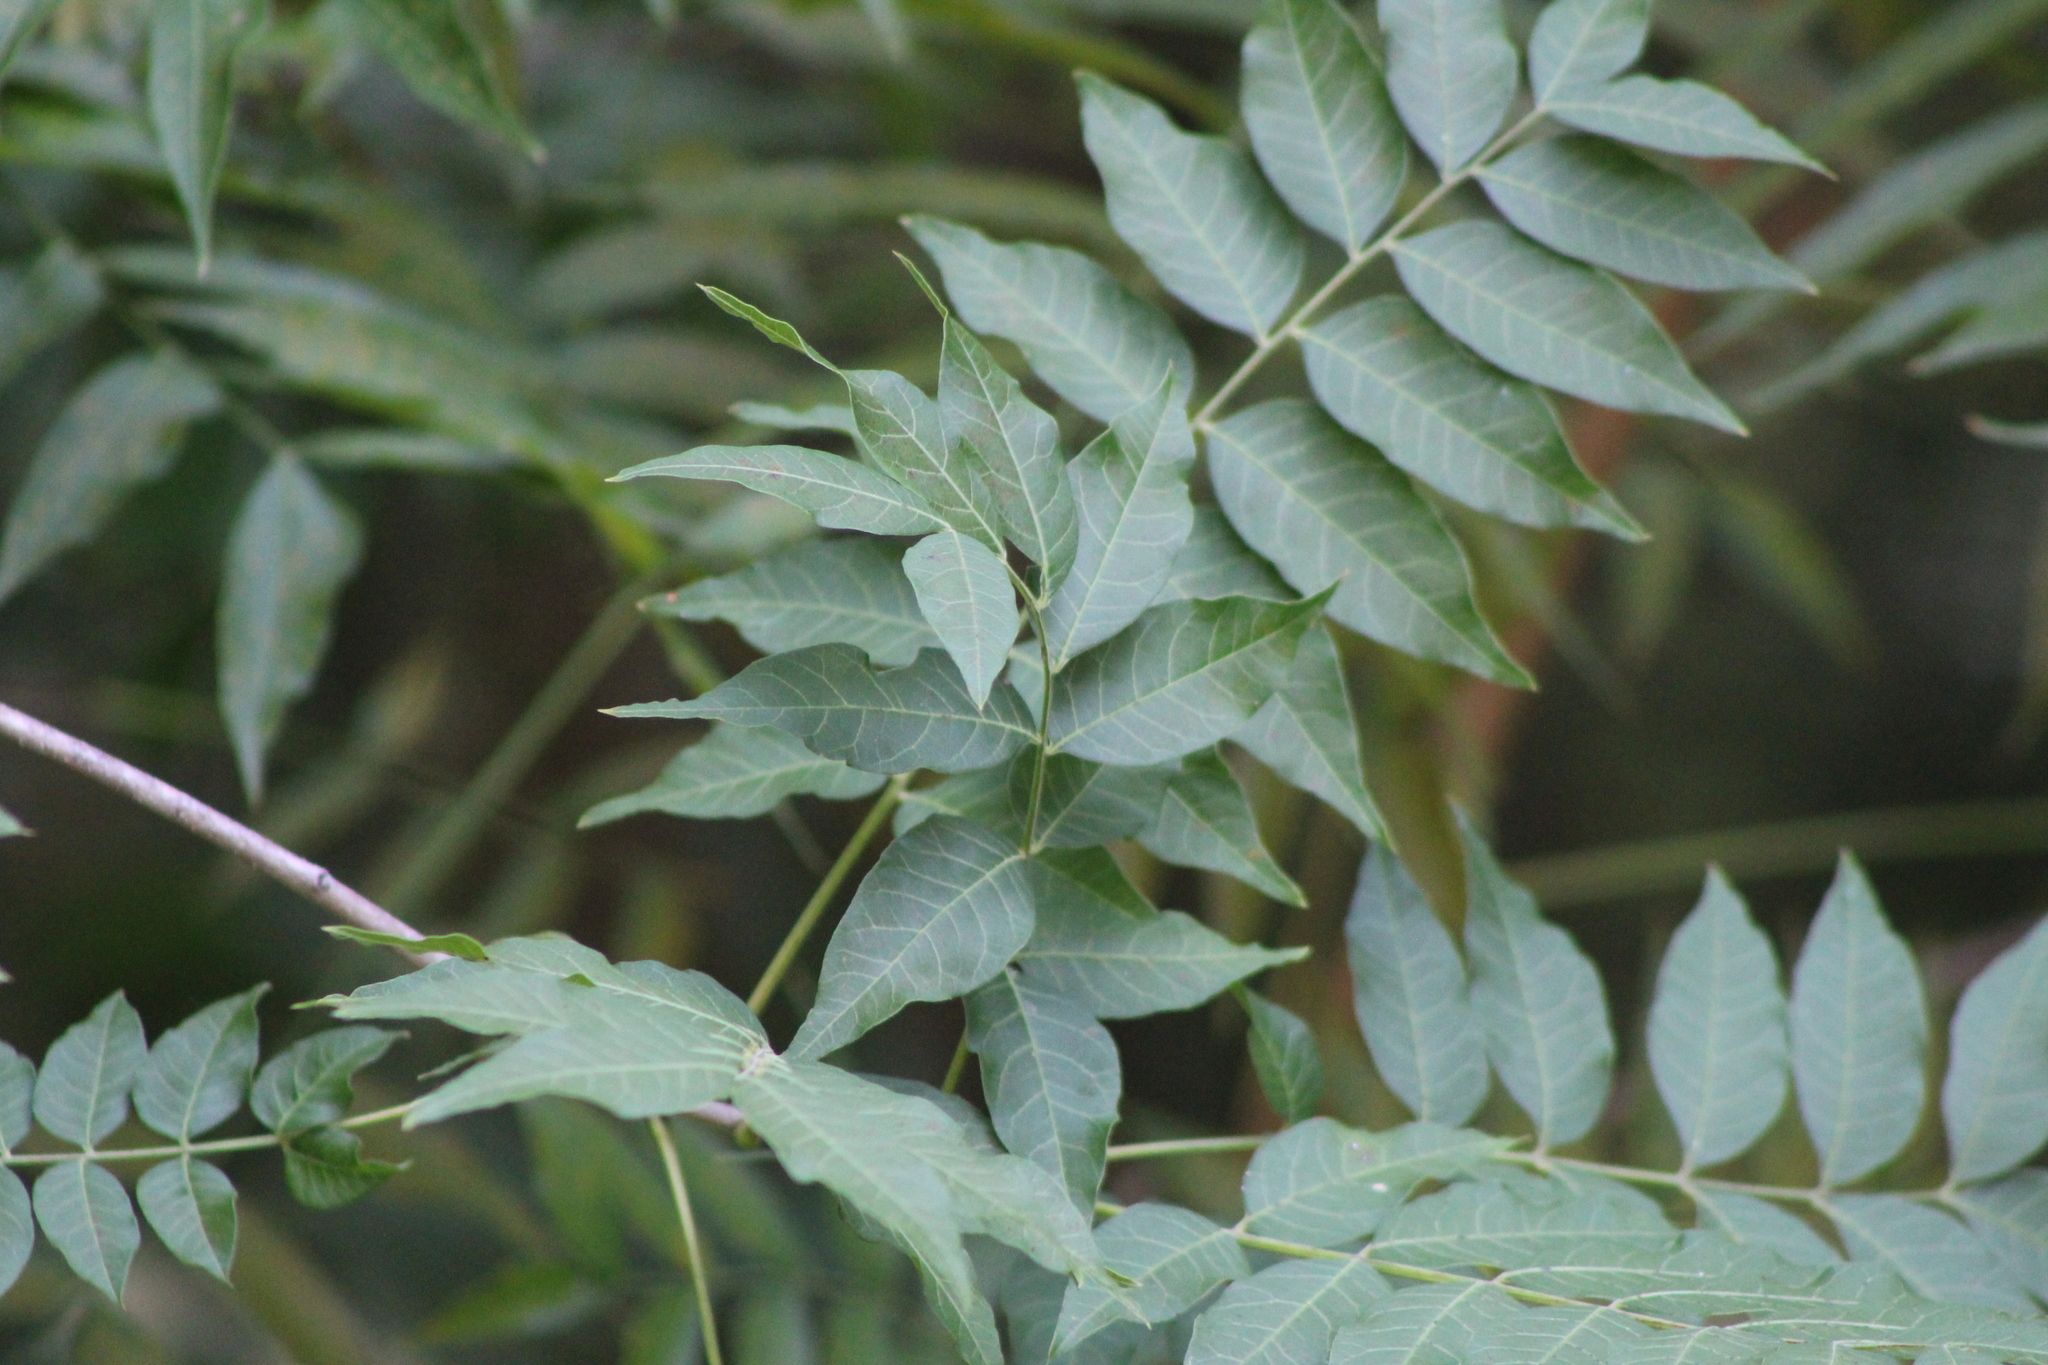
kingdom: Plantae
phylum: Tracheophyta
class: Magnoliopsida
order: Sapindales
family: Anacardiaceae
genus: Pistacia
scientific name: Pistacia chinensis
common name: Chinese pistache
